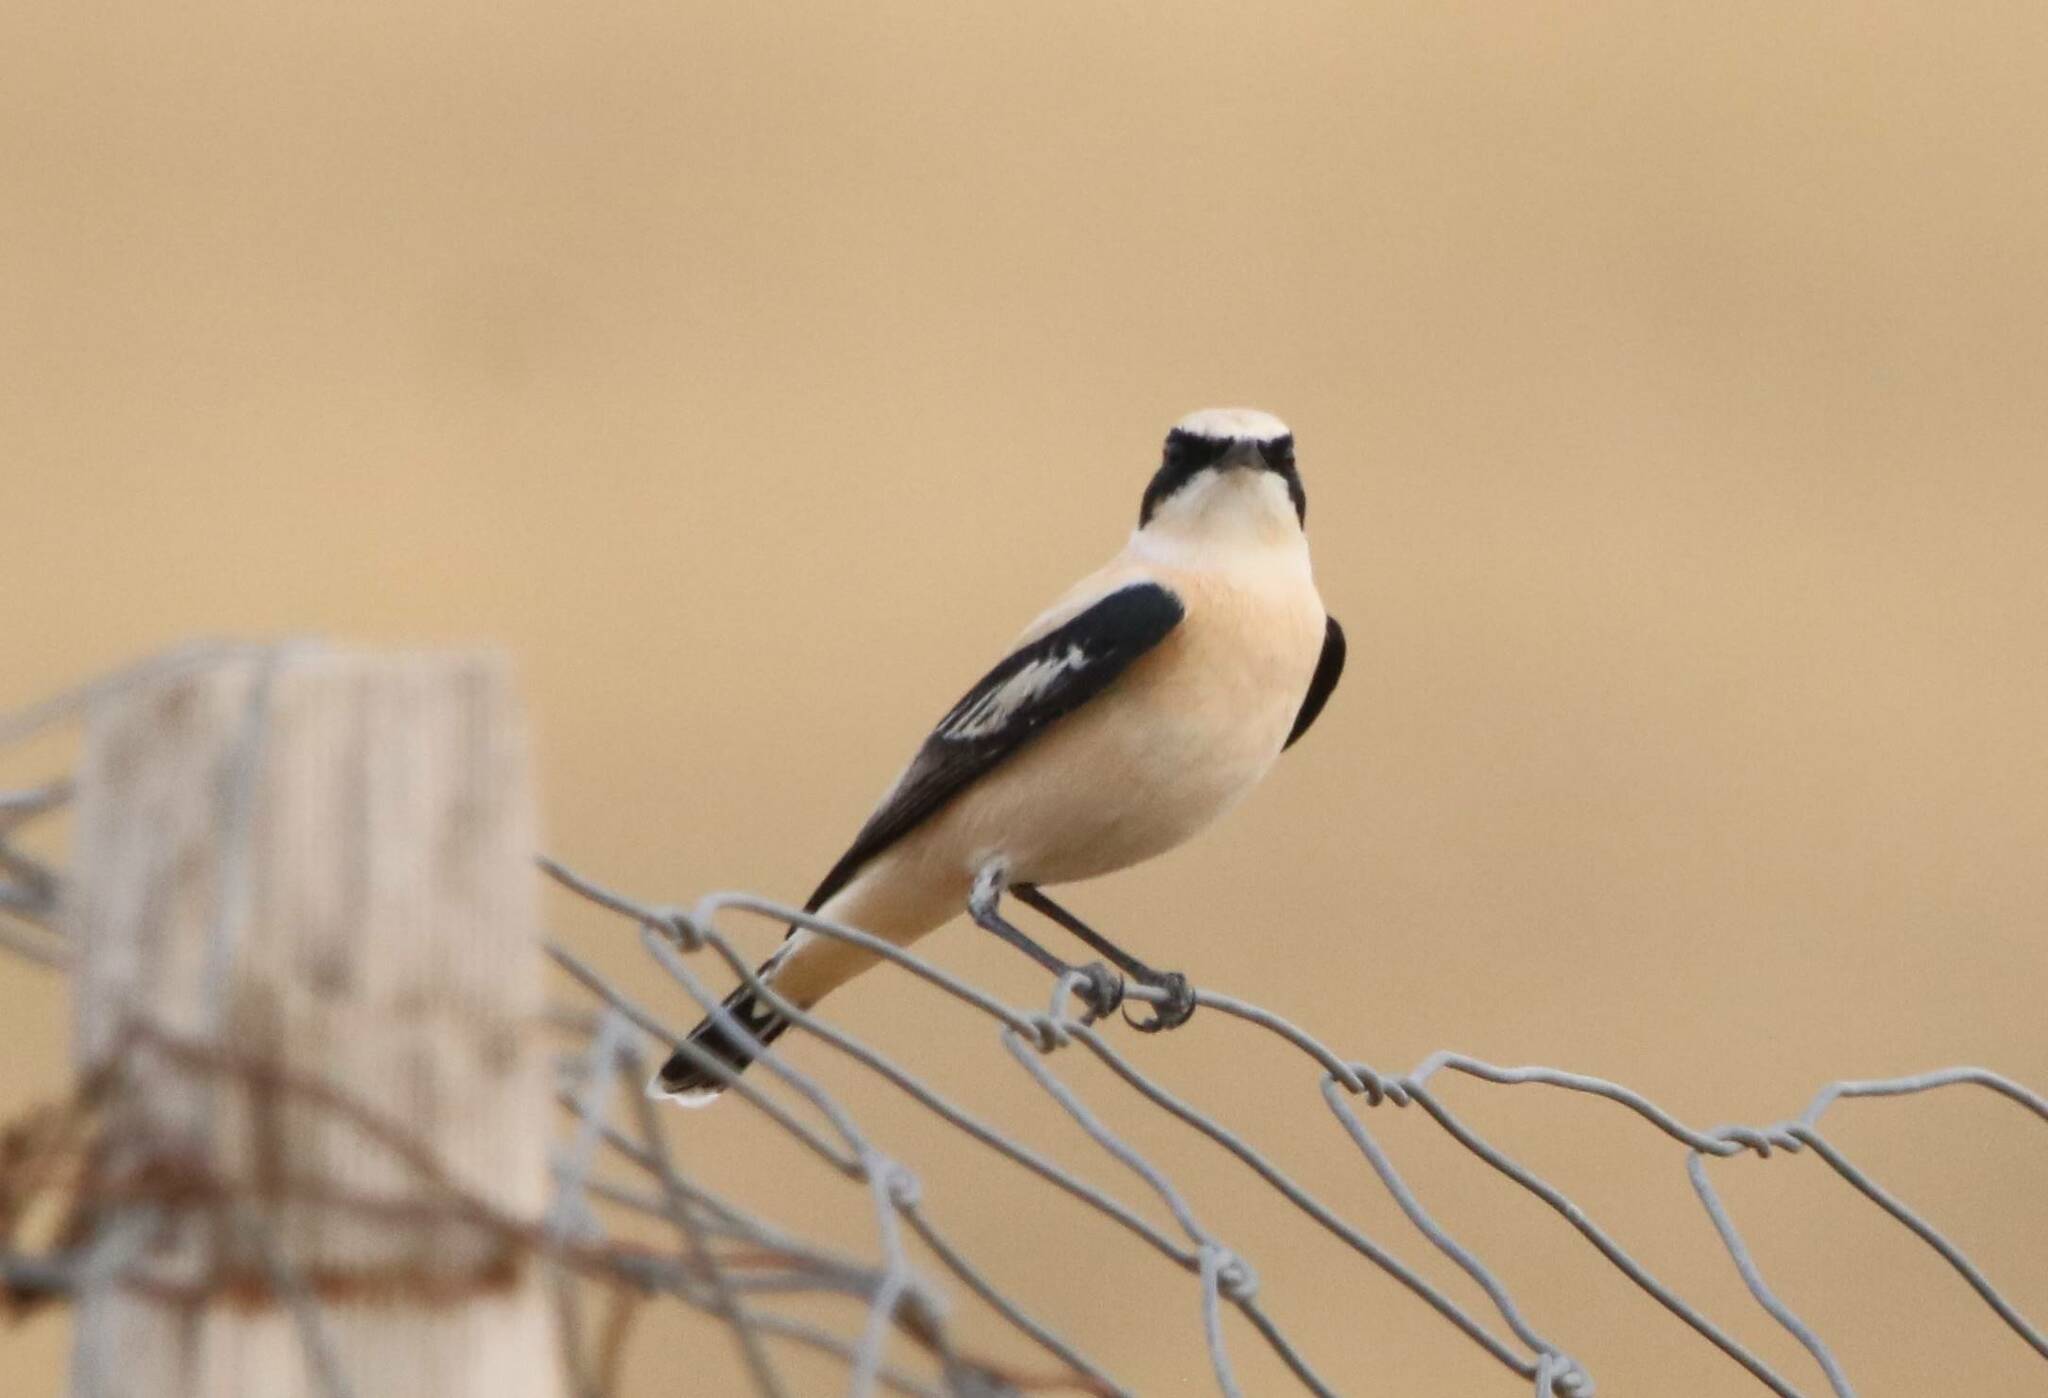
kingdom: Animalia
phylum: Chordata
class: Aves
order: Passeriformes
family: Muscicapidae
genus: Oenanthe
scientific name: Oenanthe hispanica
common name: Black-eared wheatear
